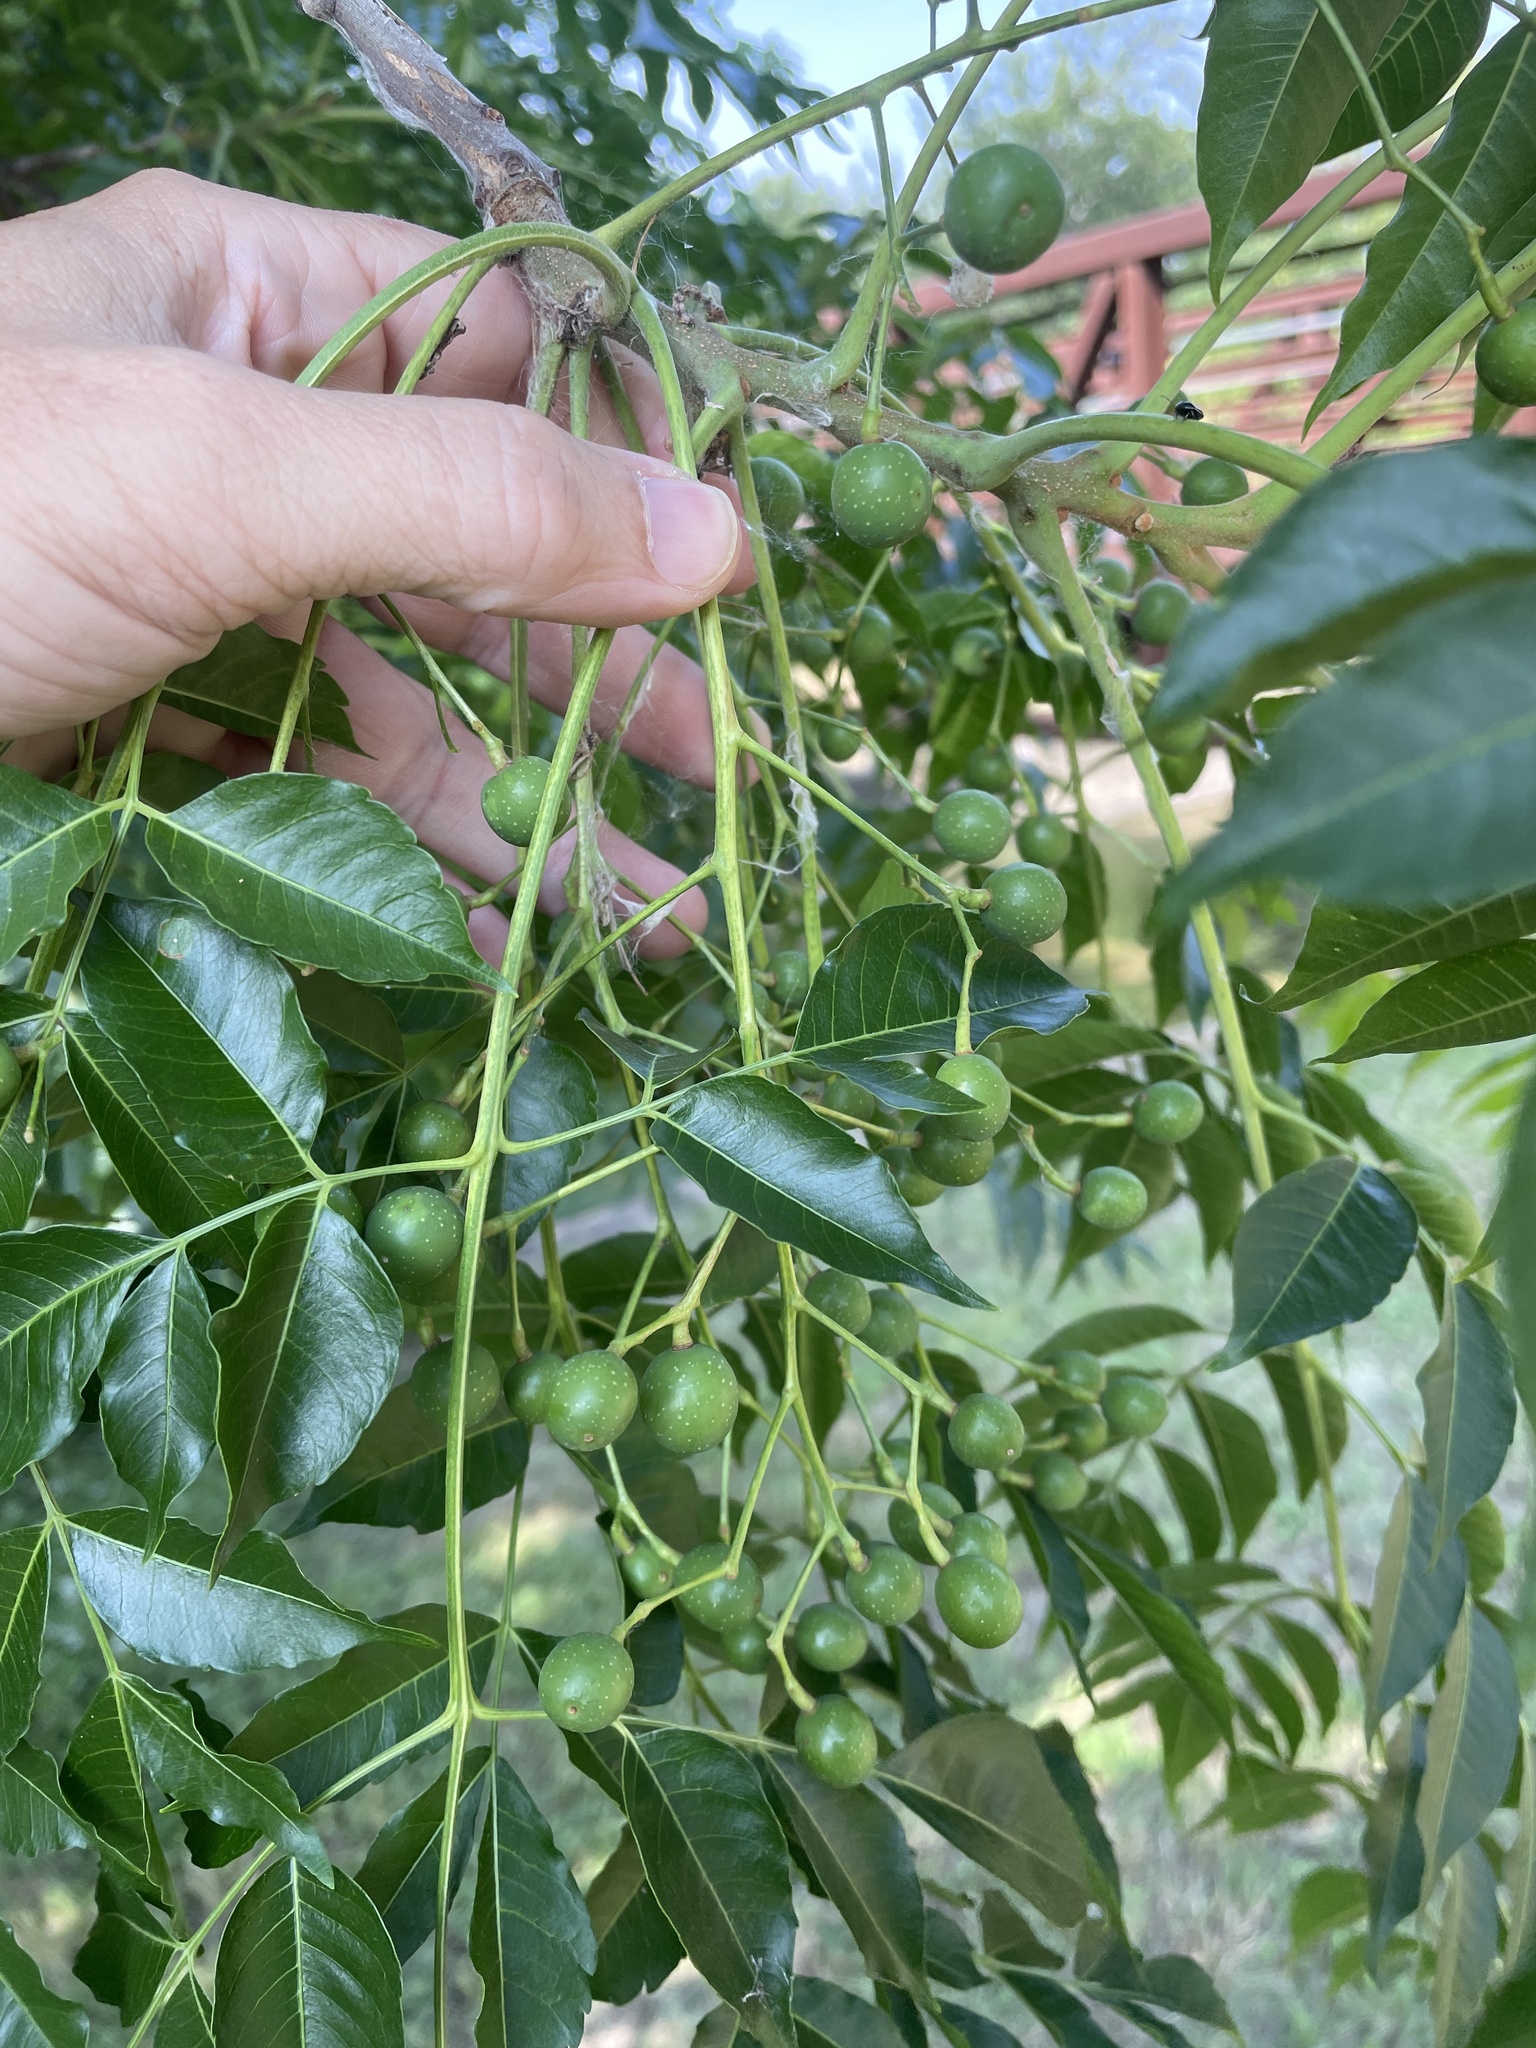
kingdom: Plantae
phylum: Tracheophyta
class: Magnoliopsida
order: Sapindales
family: Meliaceae
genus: Melia
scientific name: Melia azedarach
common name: Chinaberrytree
